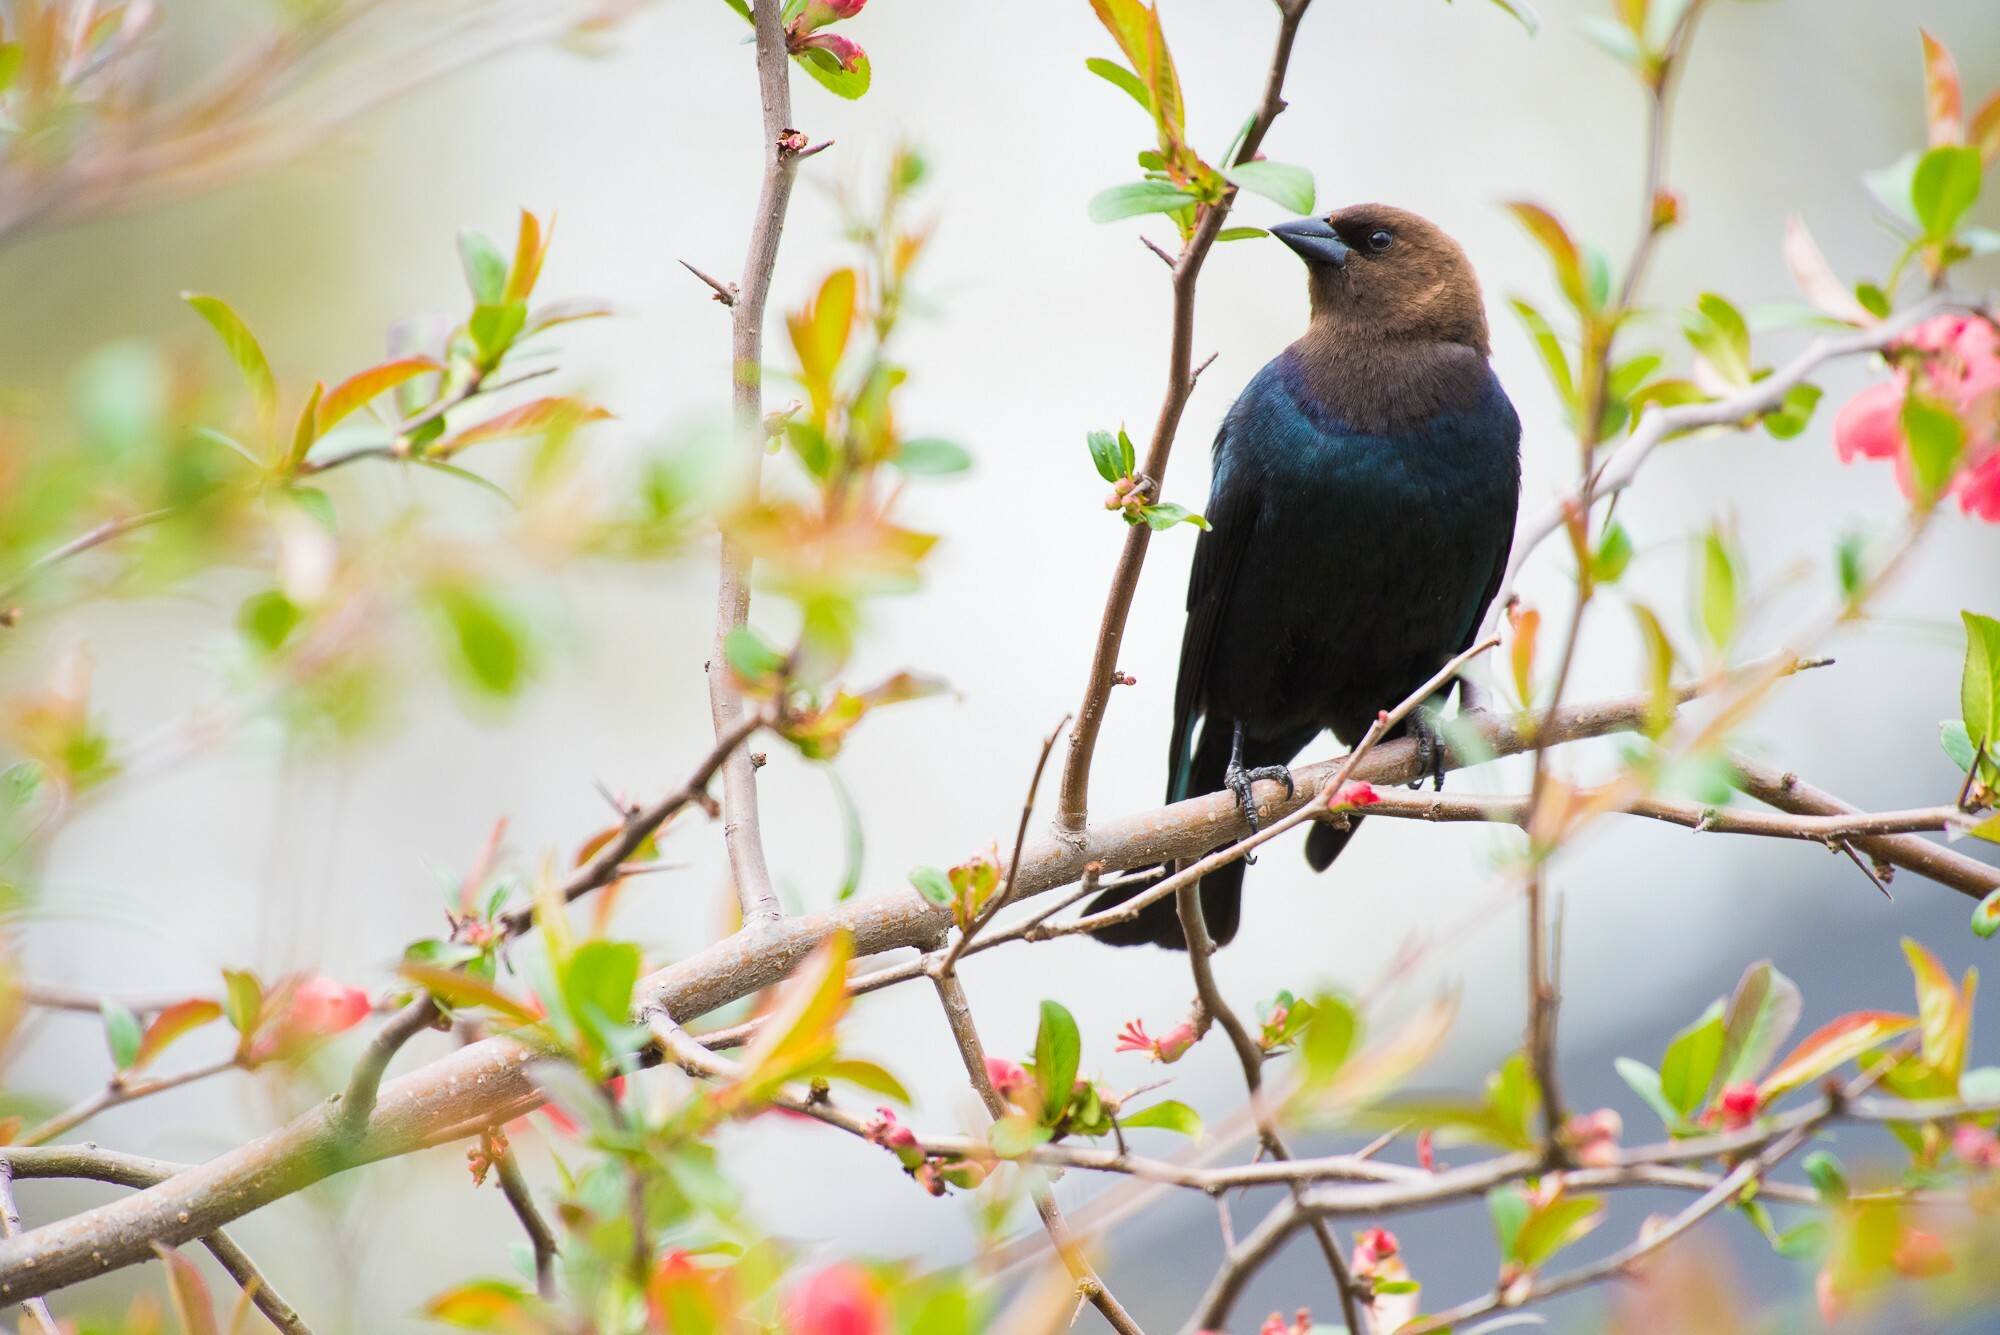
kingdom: Animalia
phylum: Chordata
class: Aves
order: Passeriformes
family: Icteridae
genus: Molothrus
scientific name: Molothrus ater
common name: Brown-headed cowbird
